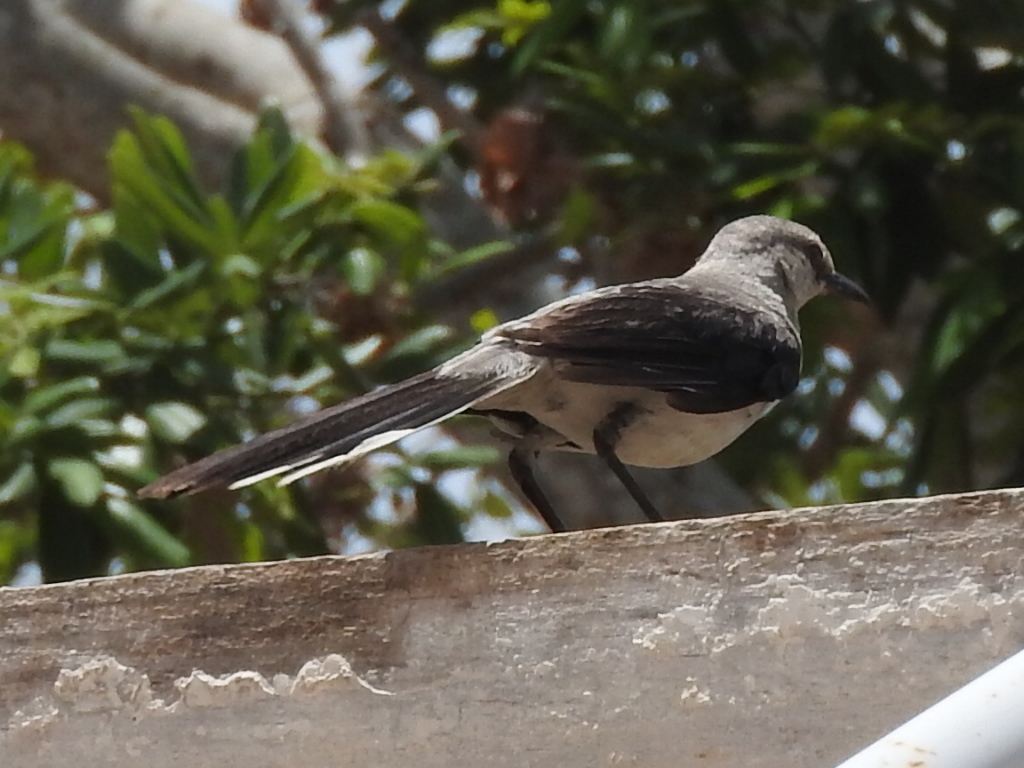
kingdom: Animalia
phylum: Chordata
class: Aves
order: Passeriformes
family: Mimidae
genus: Mimus
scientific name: Mimus gilvus
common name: Tropical mockingbird
